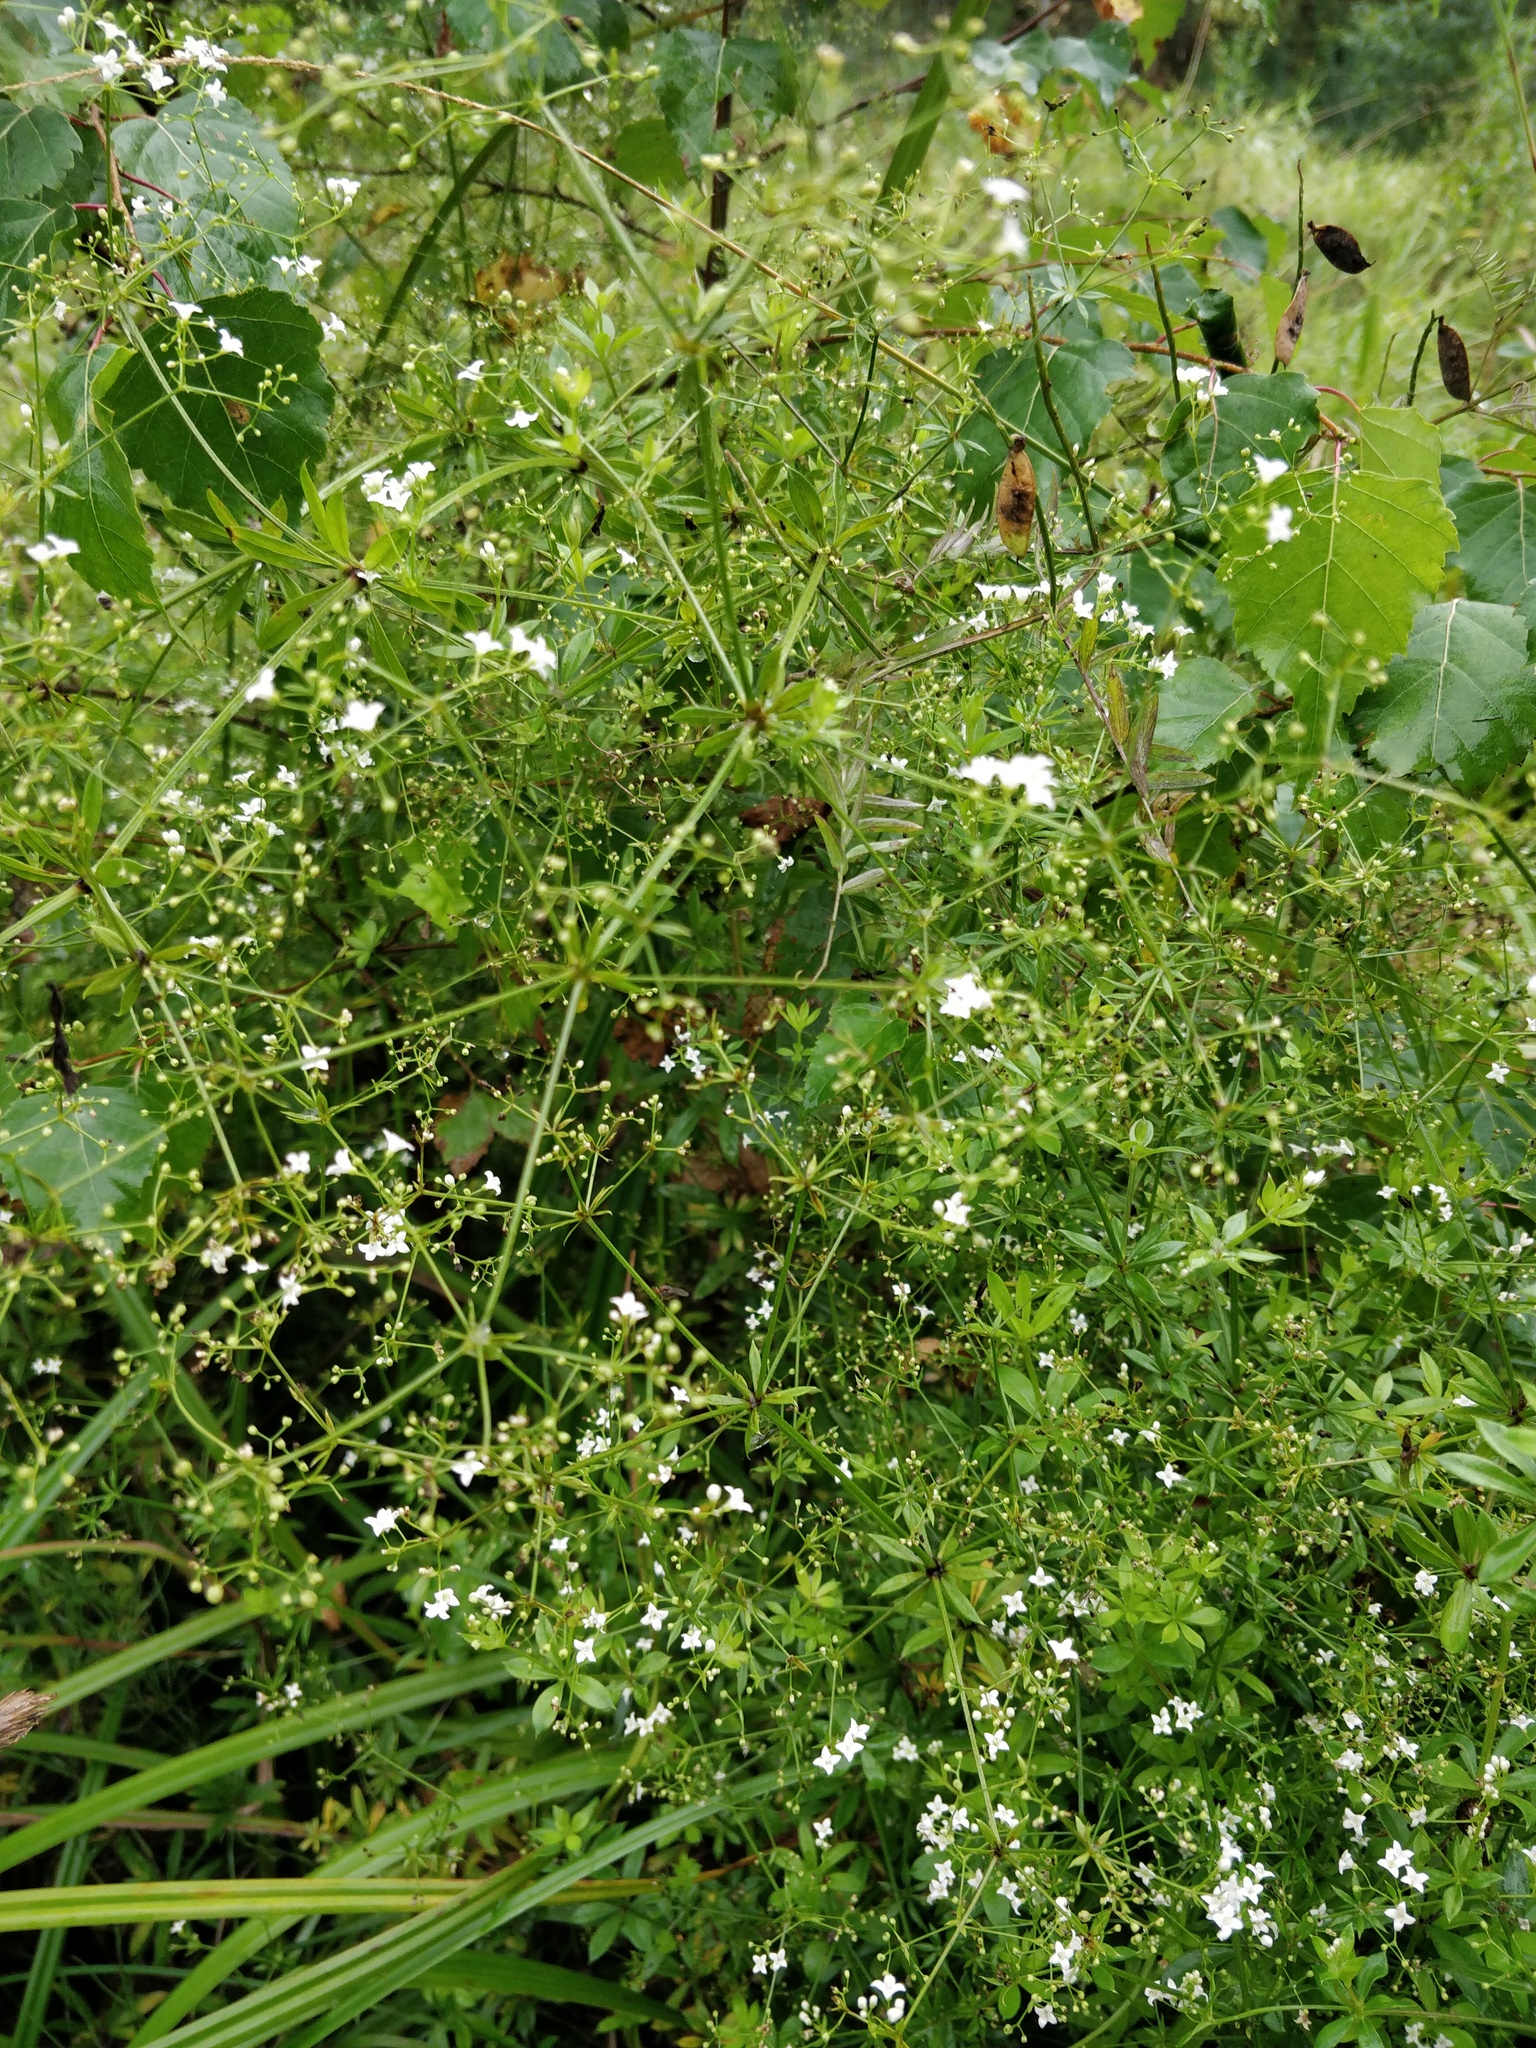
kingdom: Plantae
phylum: Tracheophyta
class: Magnoliopsida
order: Gentianales
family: Rubiaceae
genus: Galium
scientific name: Galium rivale
